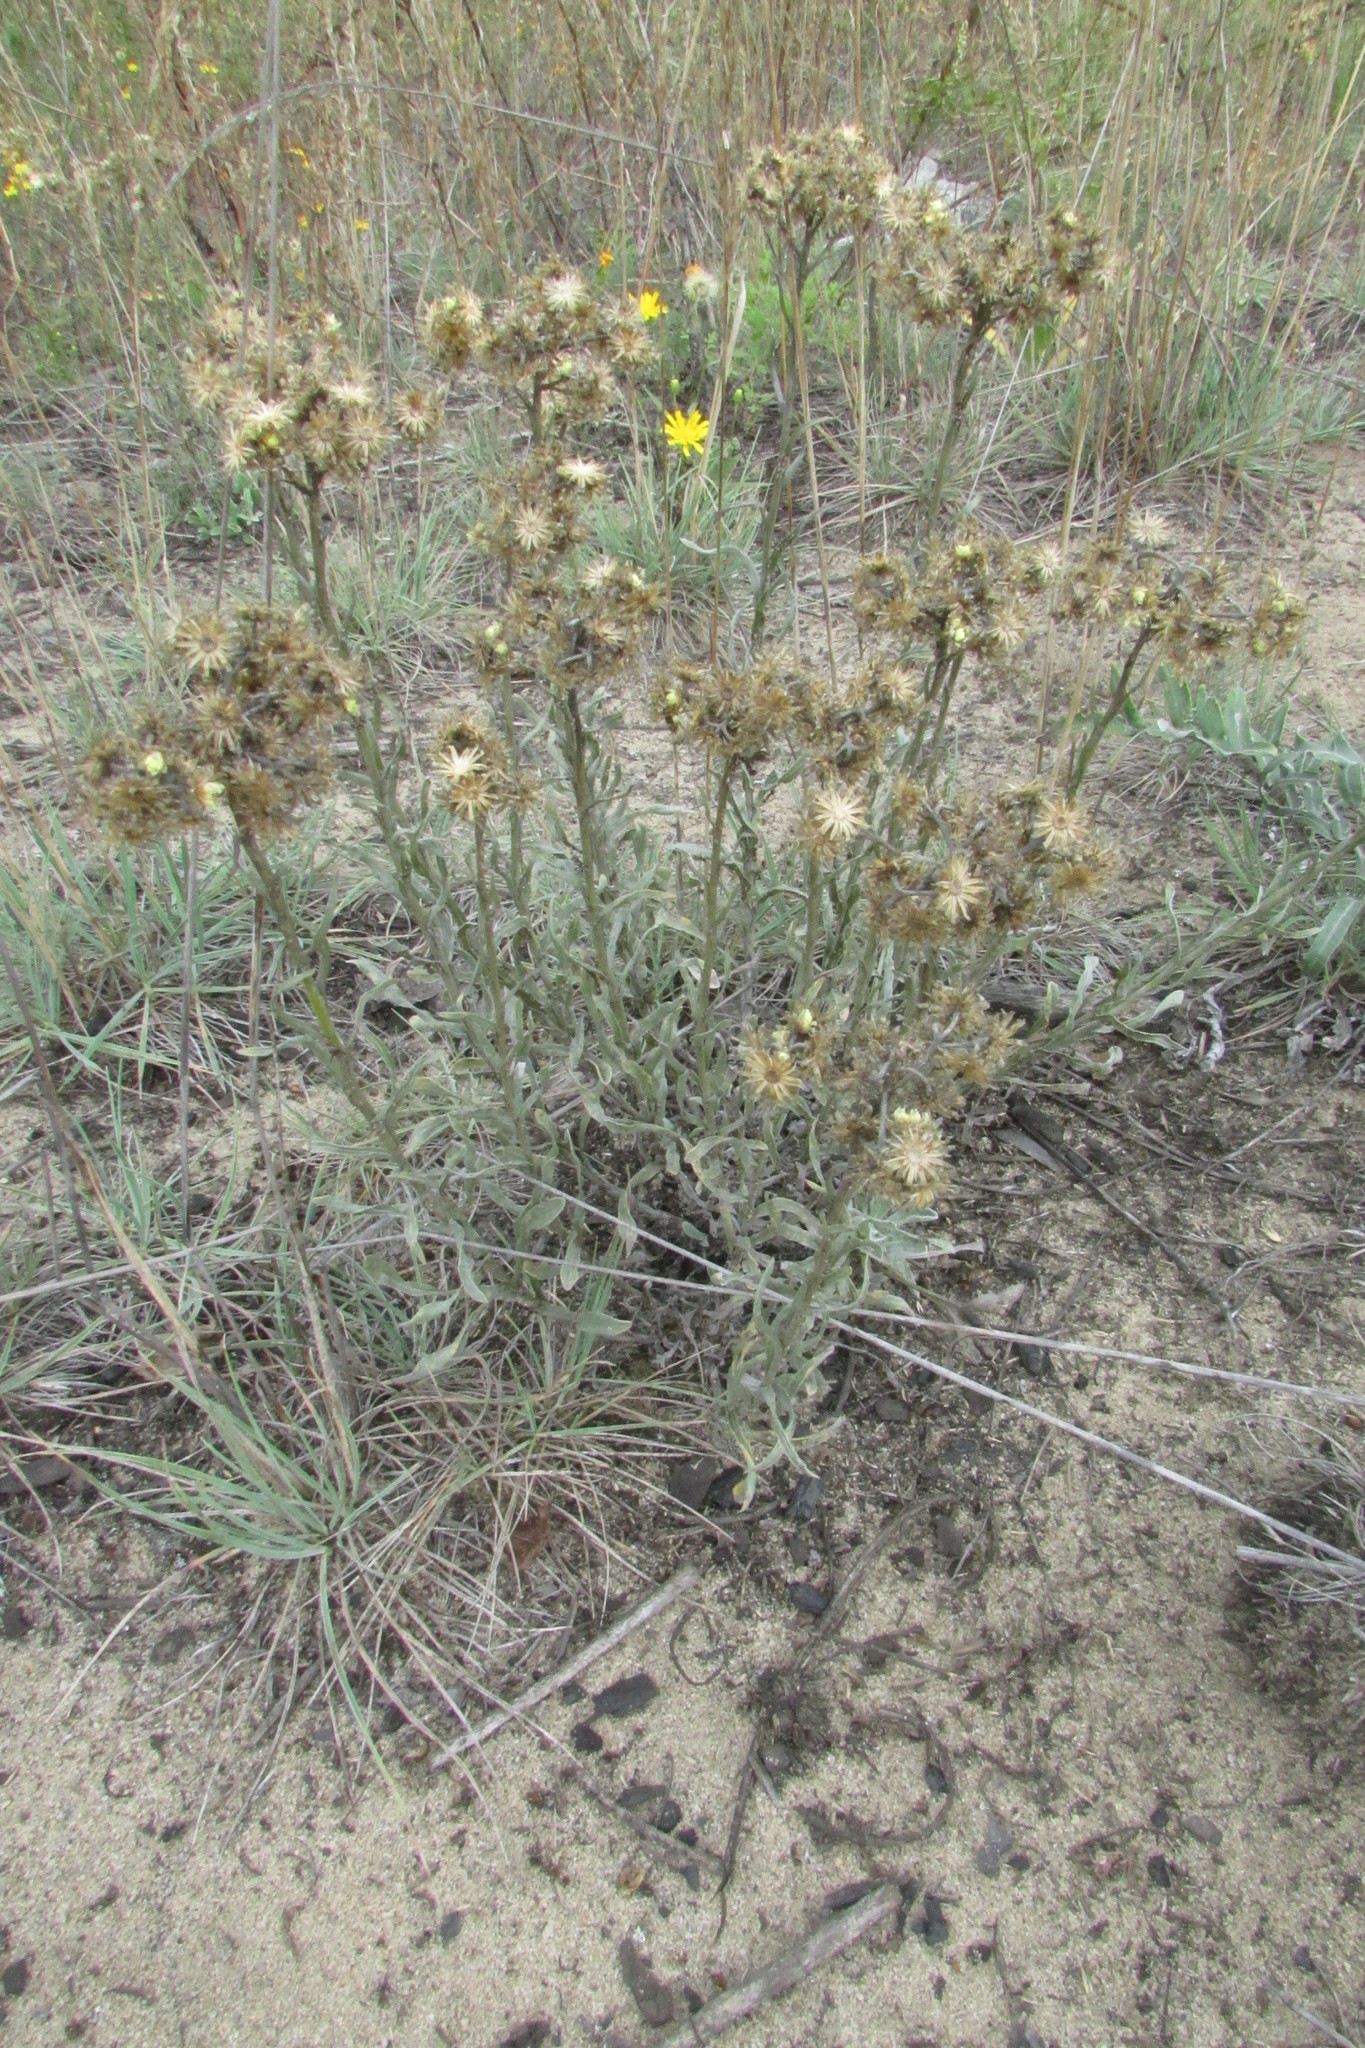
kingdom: Plantae
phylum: Tracheophyta
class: Magnoliopsida
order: Asterales
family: Asteraceae
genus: Helichrysum
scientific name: Helichrysum arenarium
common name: Strawflower
